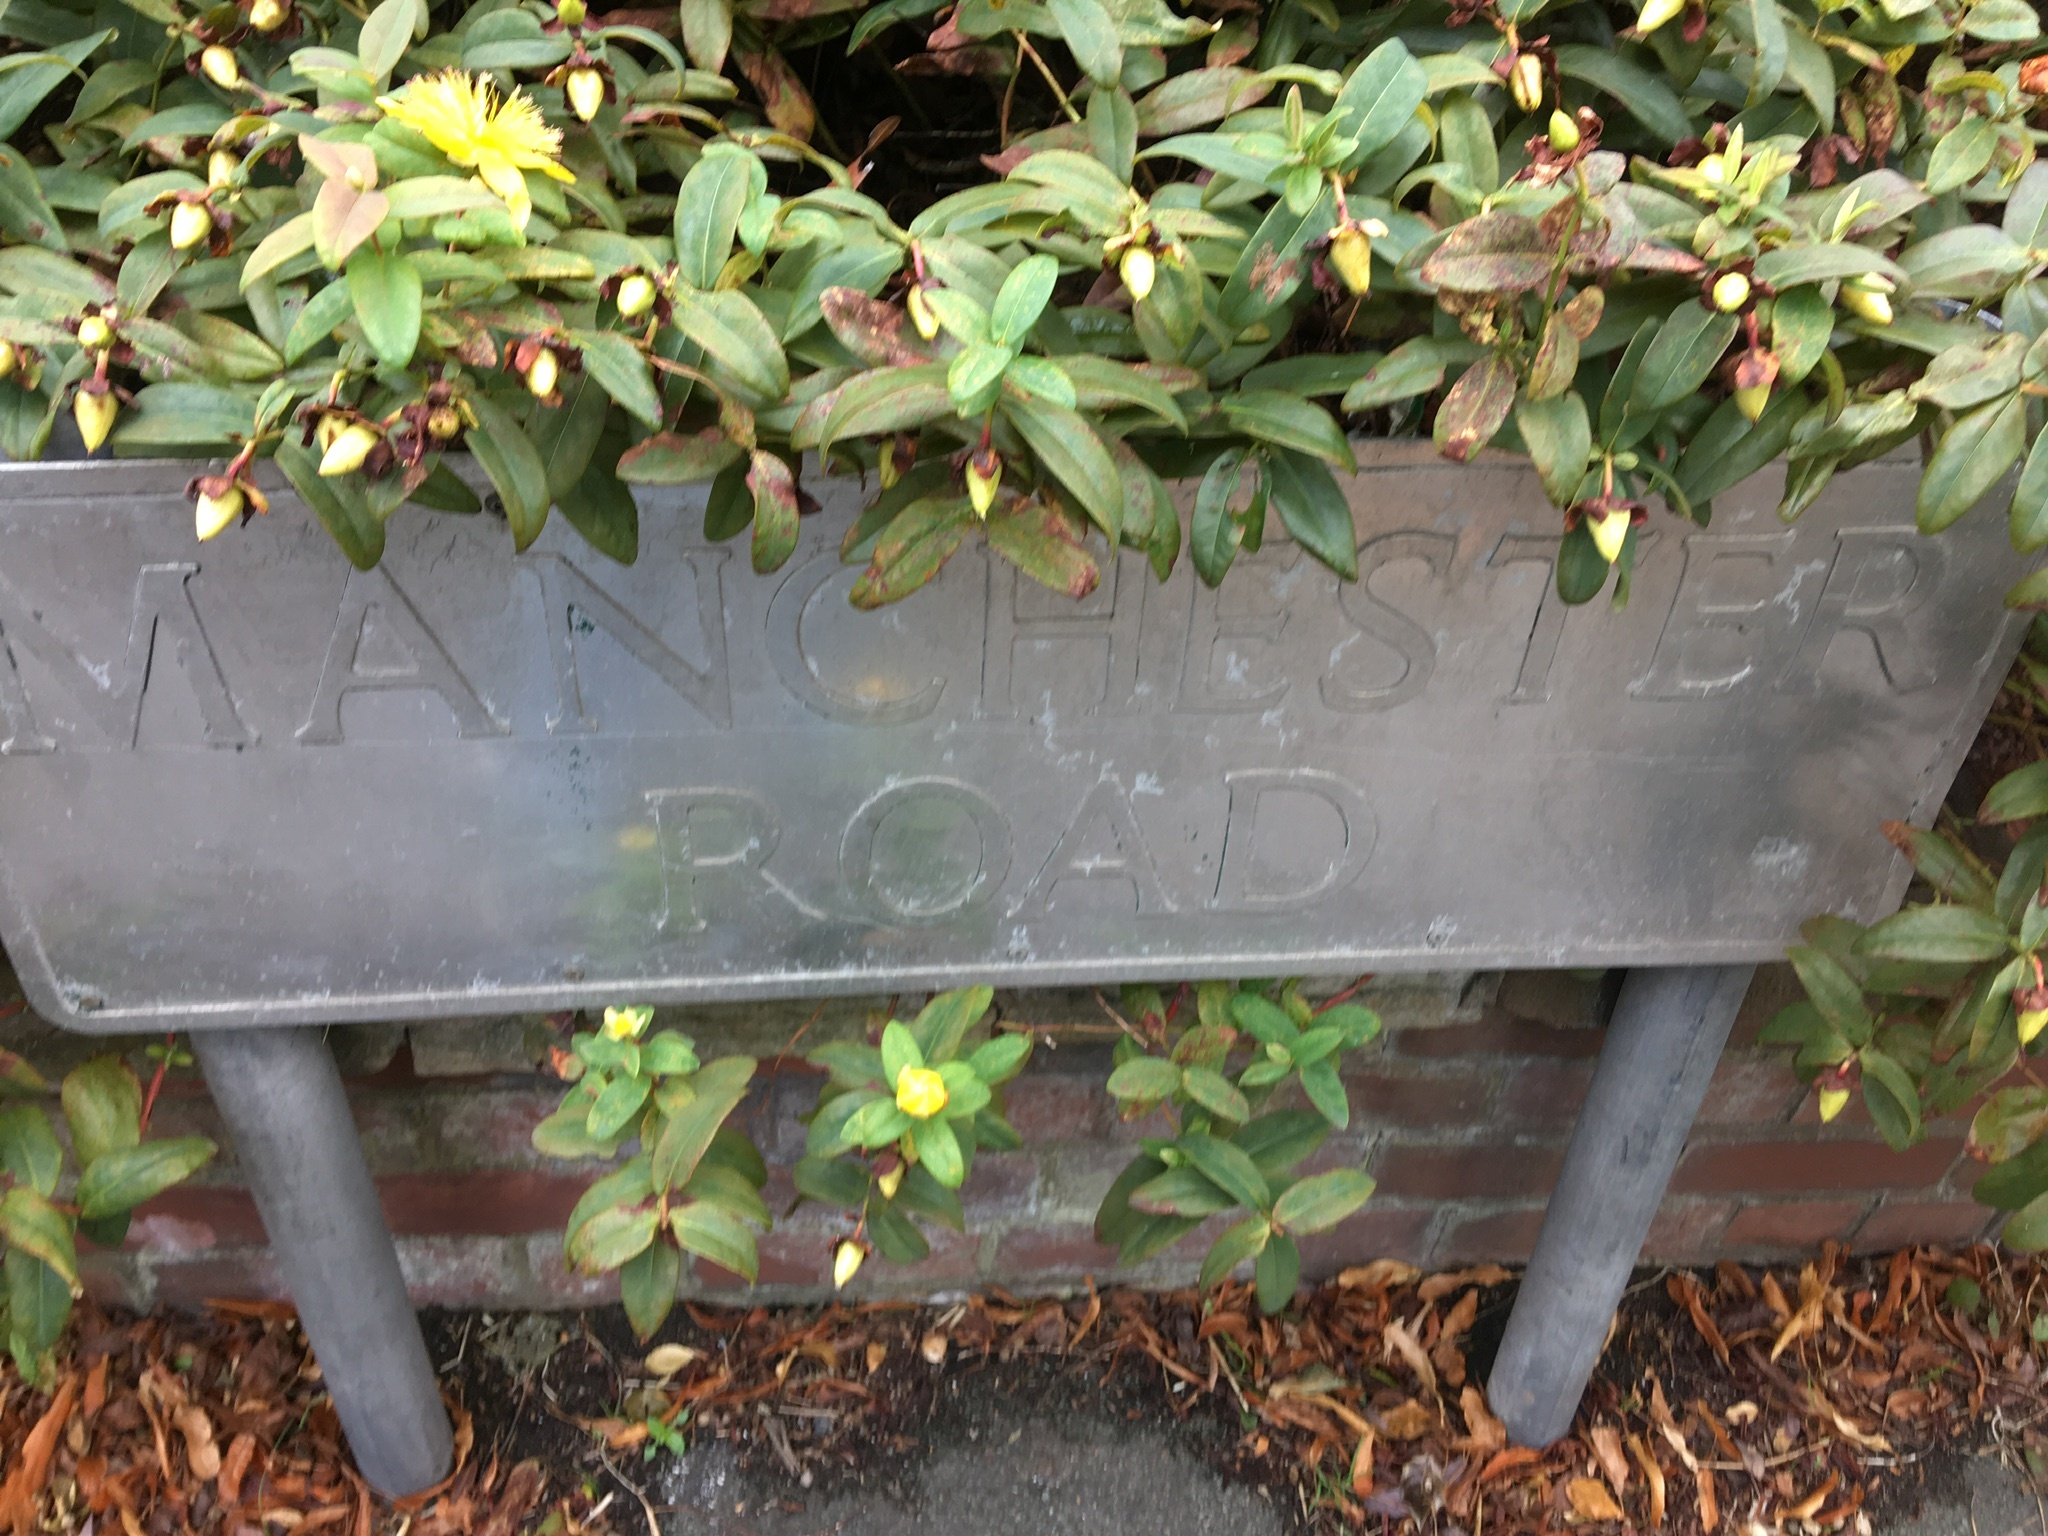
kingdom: Plantae
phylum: Tracheophyta
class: Magnoliopsida
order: Malpighiales
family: Hypericaceae
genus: Hypericum
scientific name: Hypericum calycinum
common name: Rose-of-sharon
